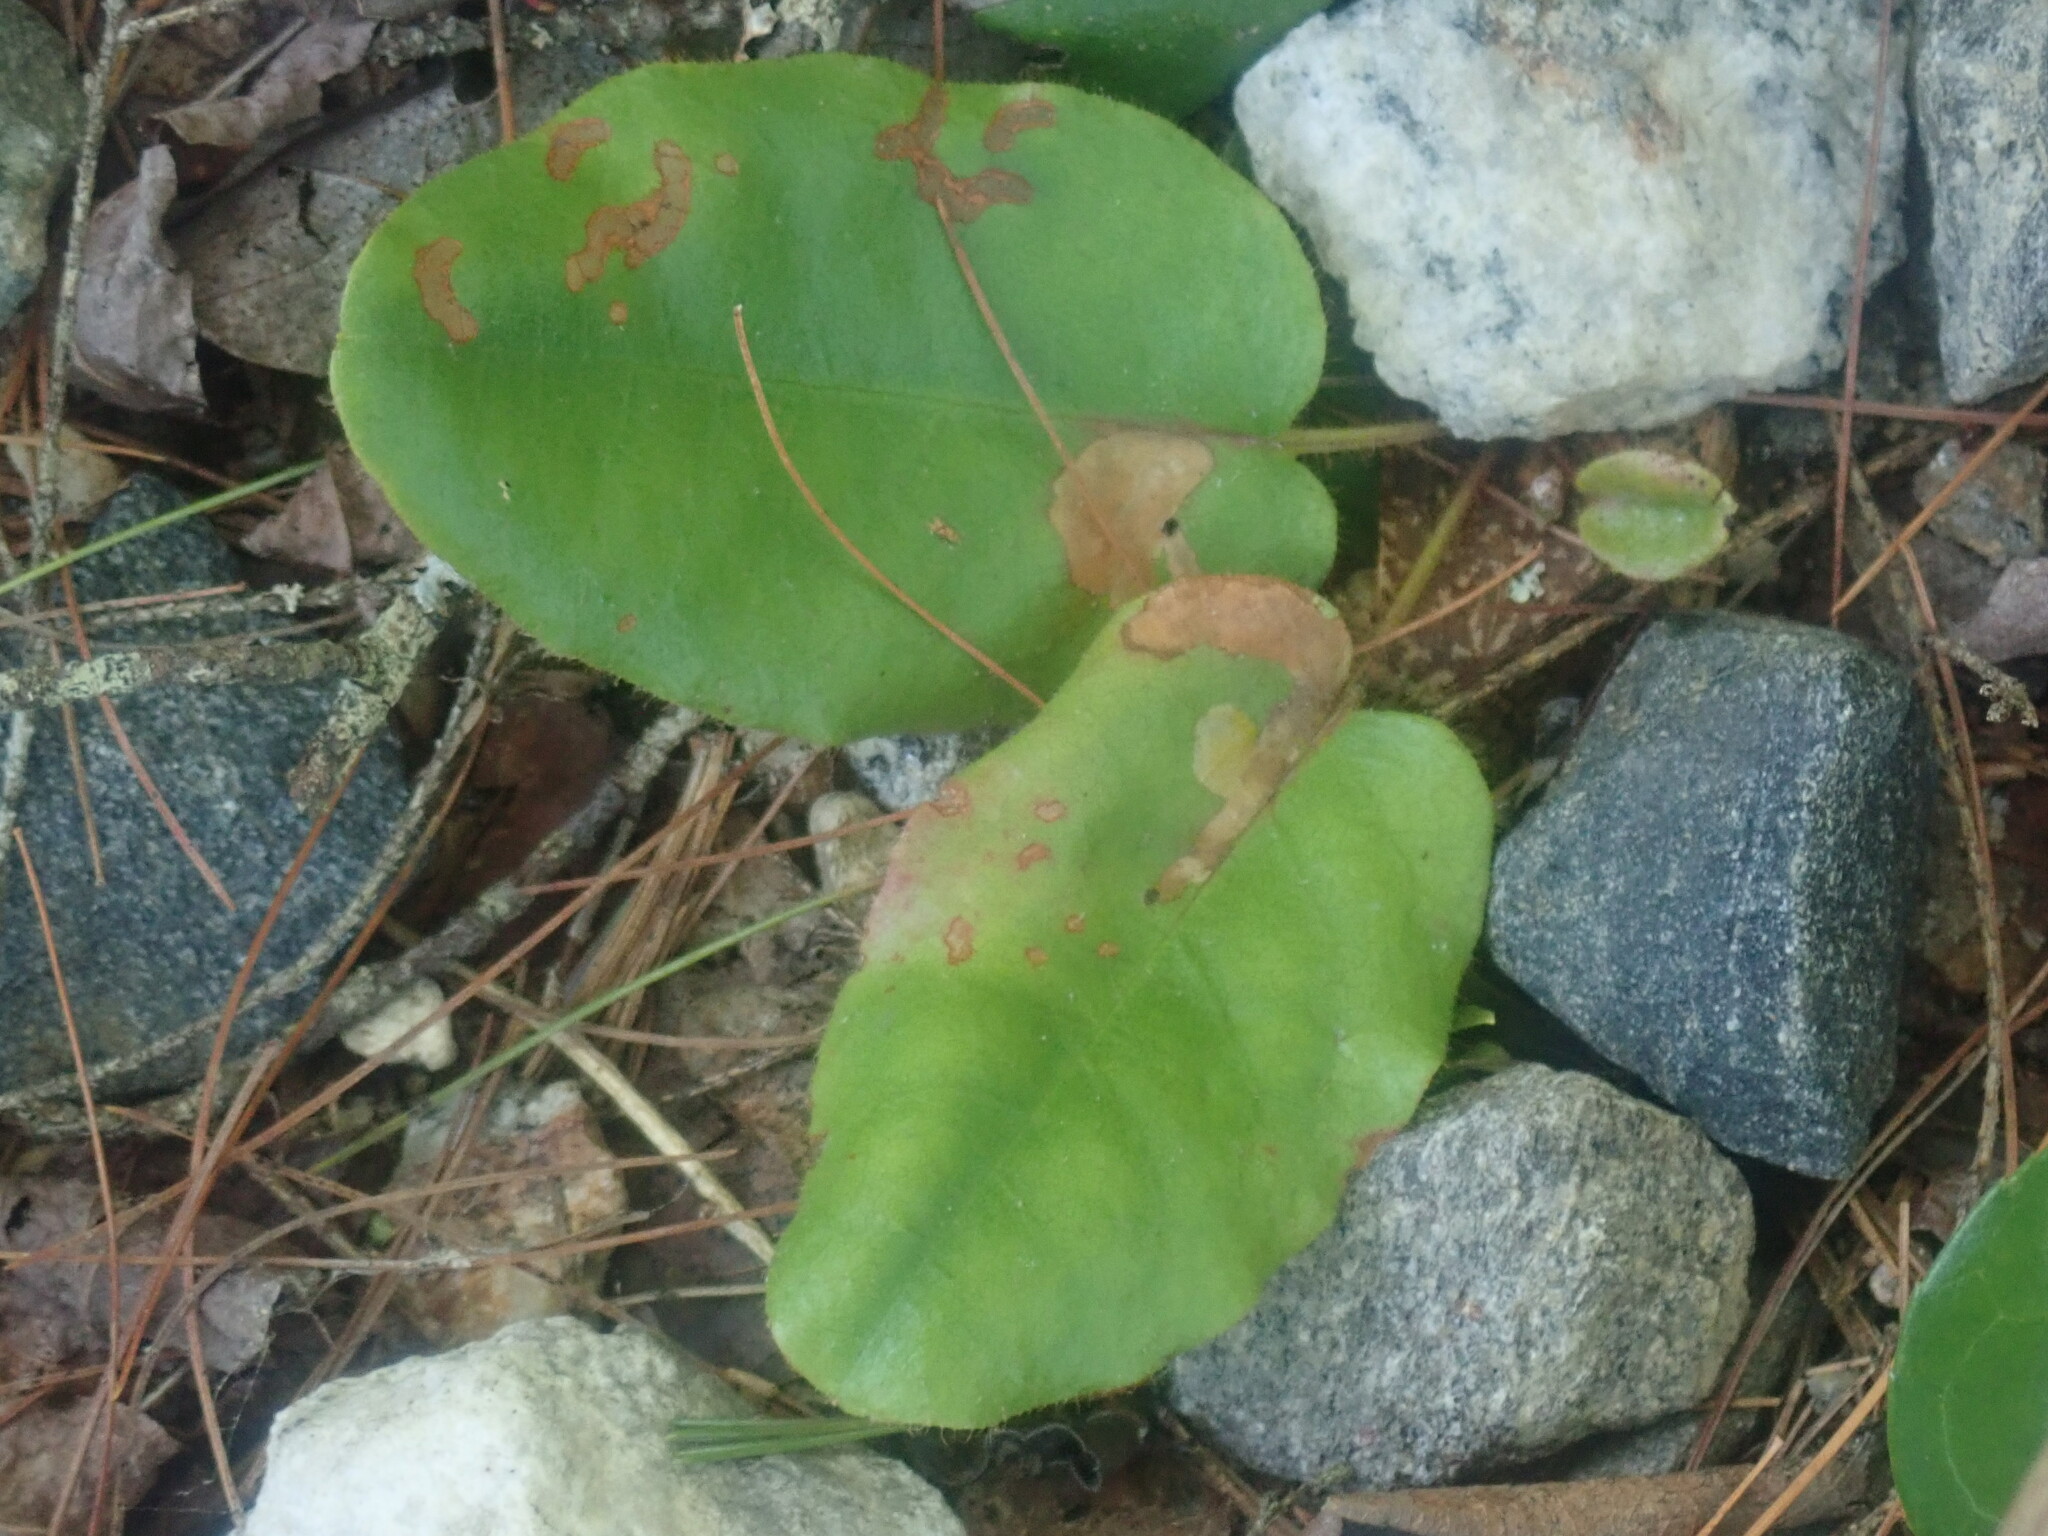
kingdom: Plantae
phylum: Tracheophyta
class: Magnoliopsida
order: Ericales
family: Ericaceae
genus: Epigaea
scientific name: Epigaea repens
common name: Gravelroot
